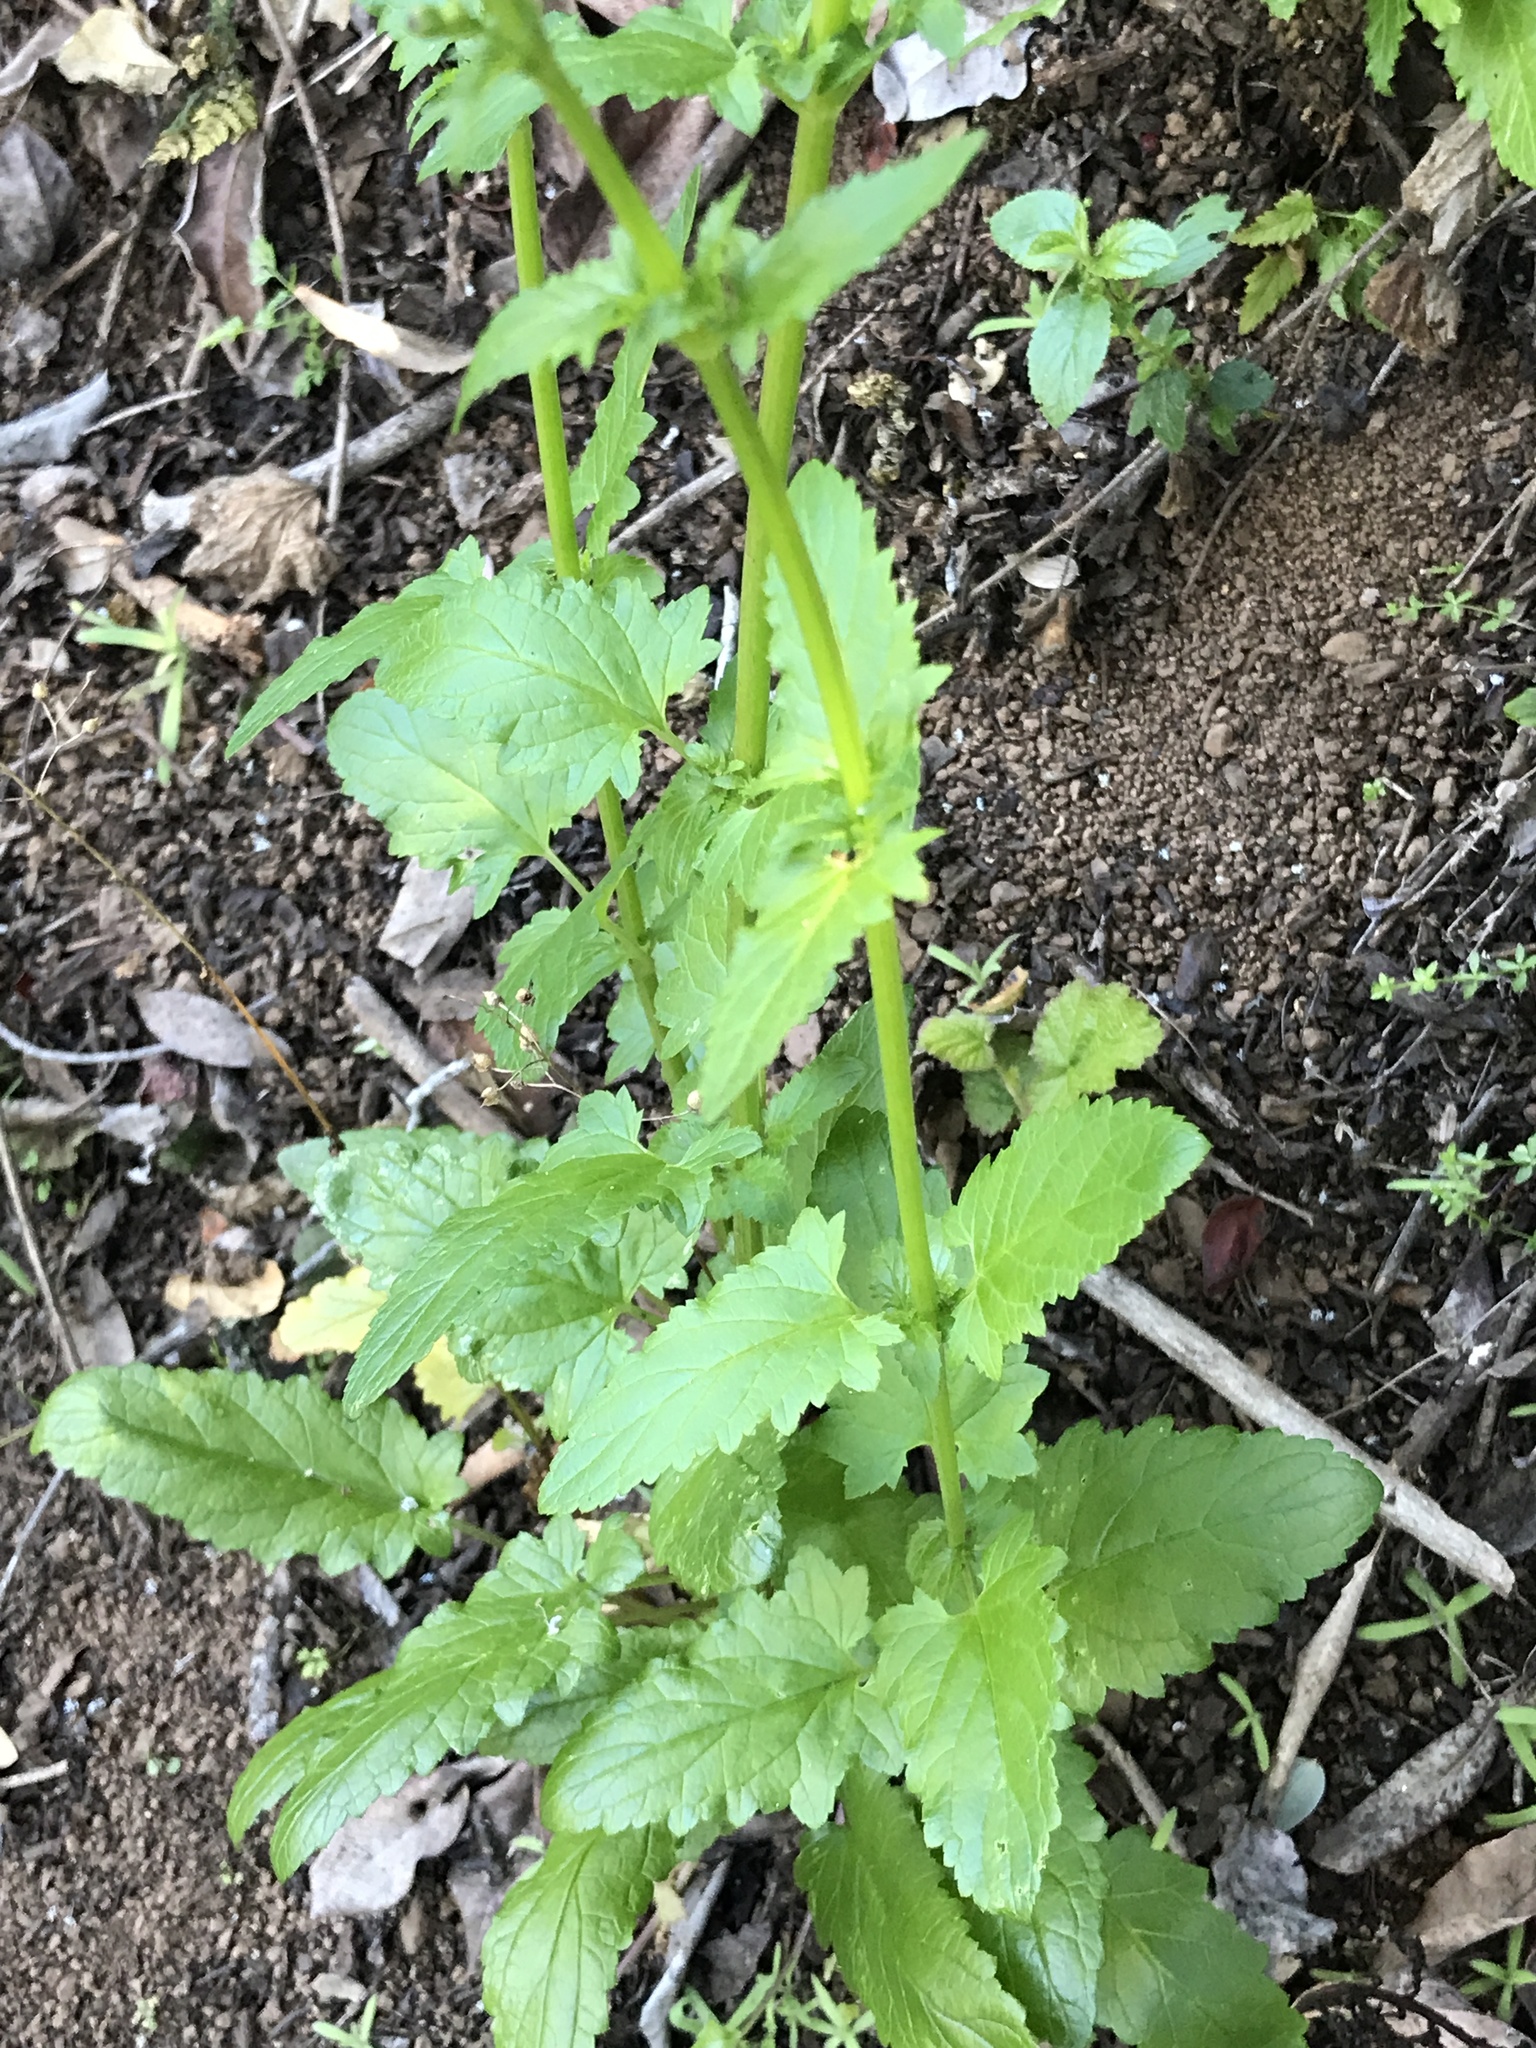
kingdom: Plantae
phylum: Tracheophyta
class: Magnoliopsida
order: Lamiales
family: Scrophulariaceae
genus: Scrophularia
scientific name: Scrophularia californica
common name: California figwort
